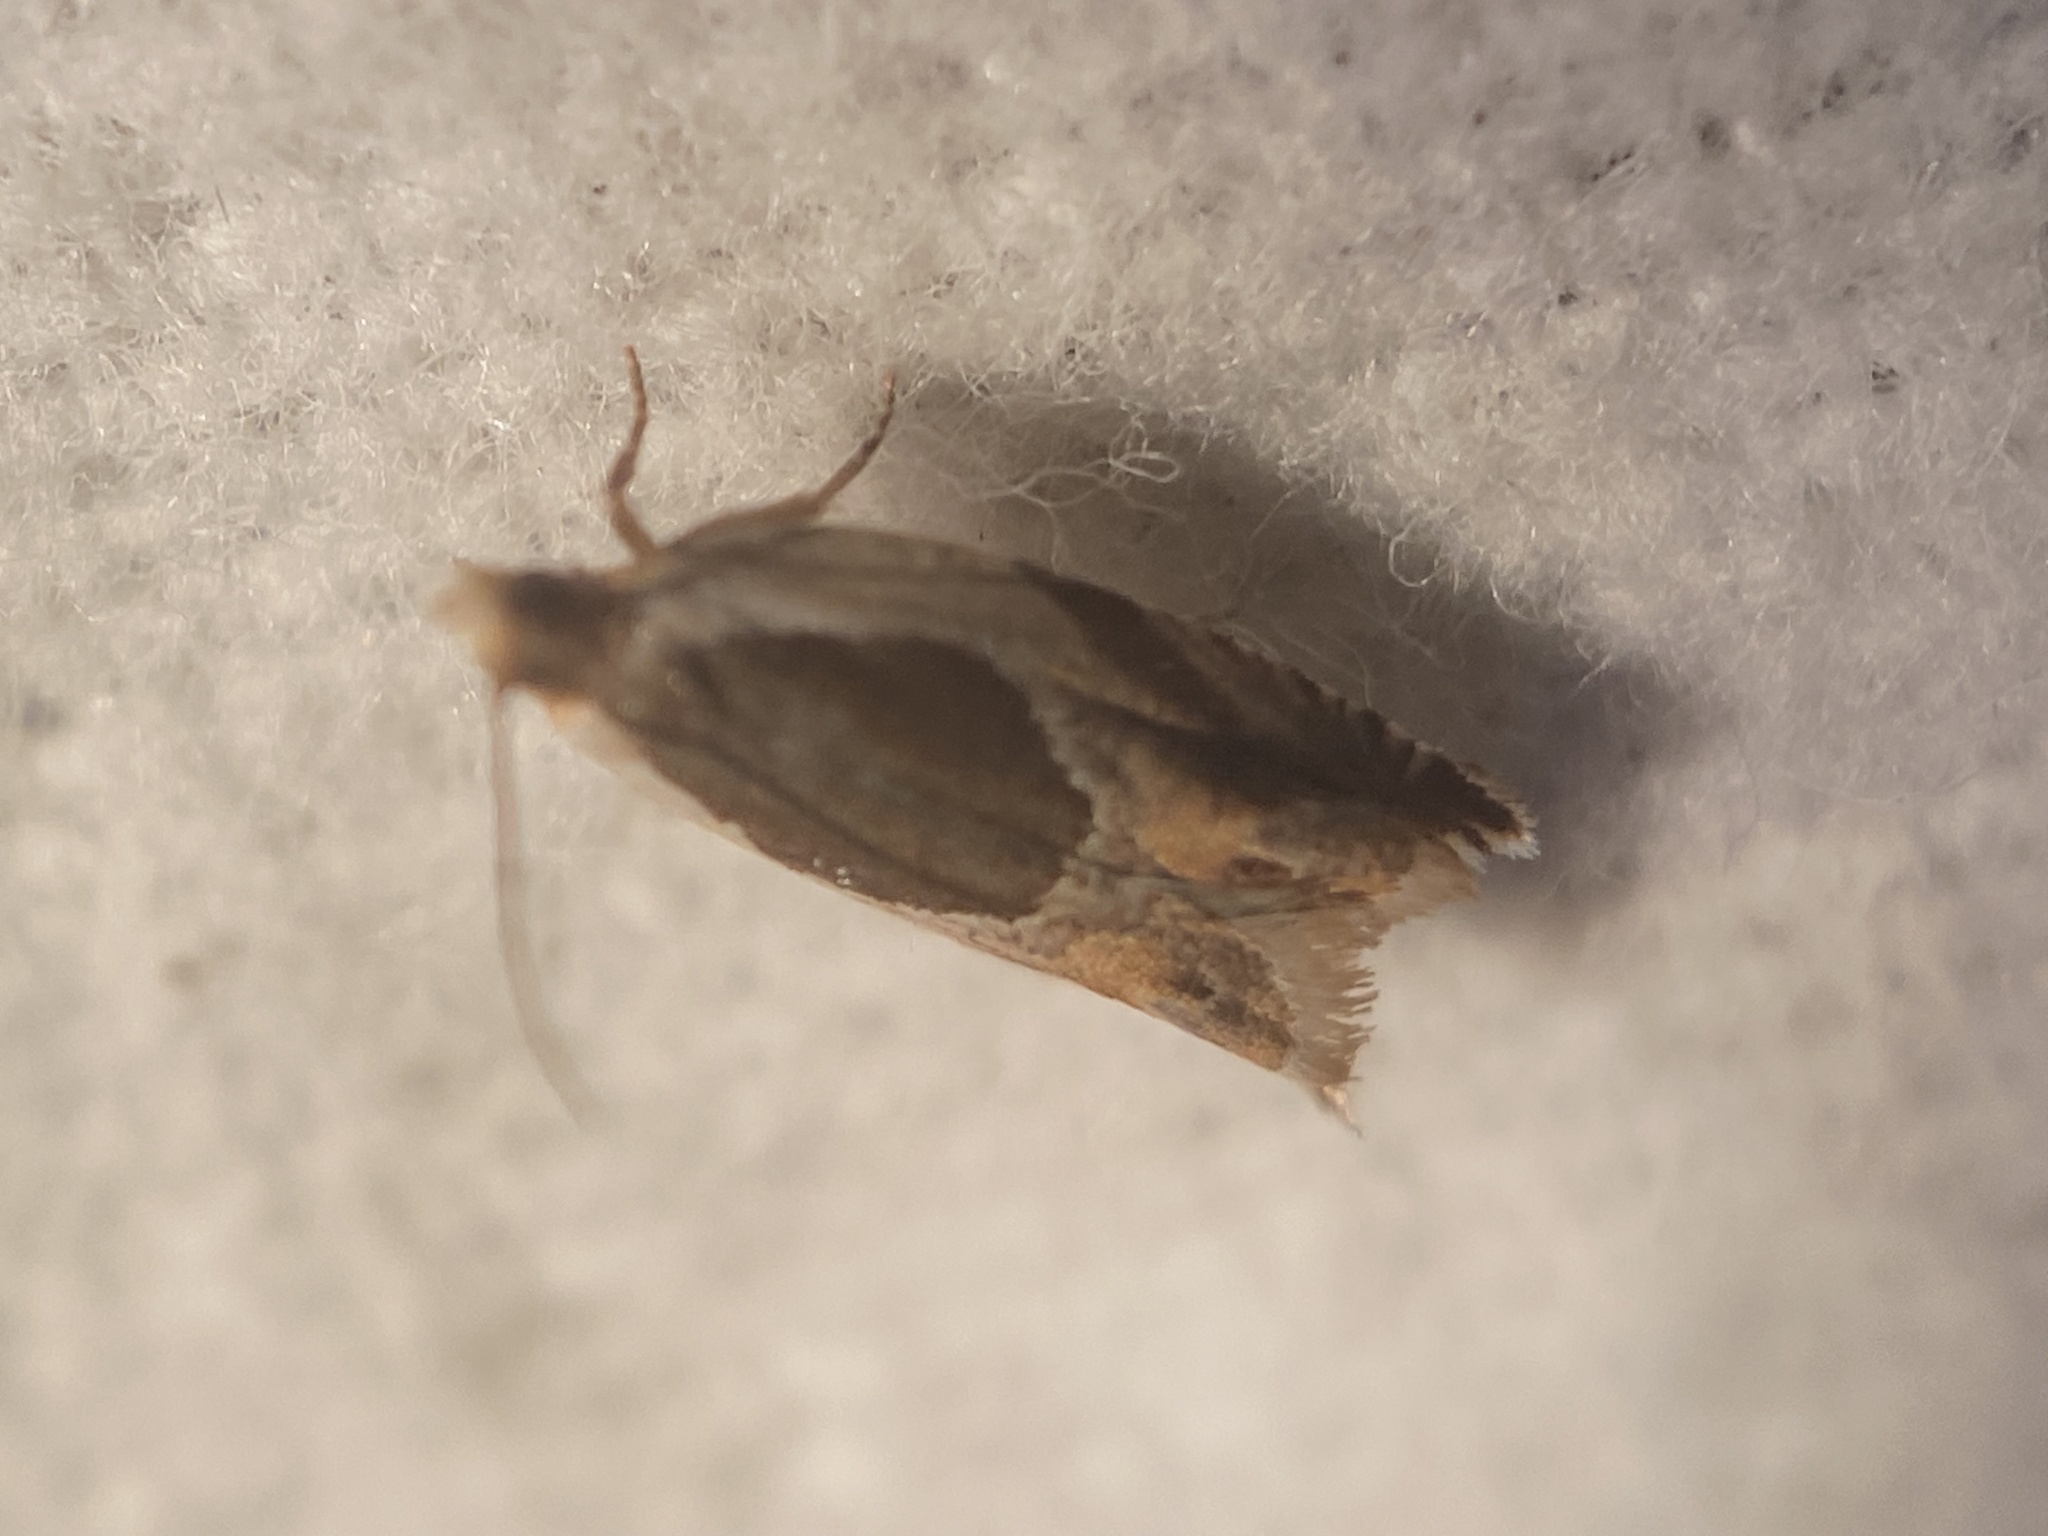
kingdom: Animalia
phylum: Arthropoda
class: Insecta
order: Lepidoptera
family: Tortricidae
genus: Ancylis
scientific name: Ancylis burgessiana
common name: Oak leaffolder moth
